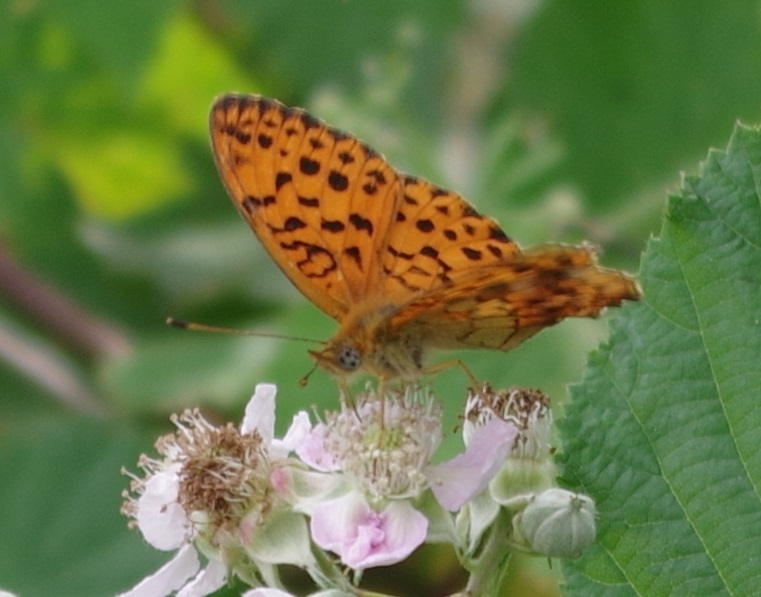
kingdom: Animalia
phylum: Arthropoda
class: Insecta
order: Lepidoptera
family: Nymphalidae
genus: Brenthis
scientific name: Brenthis daphne
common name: Marbled fritillary
